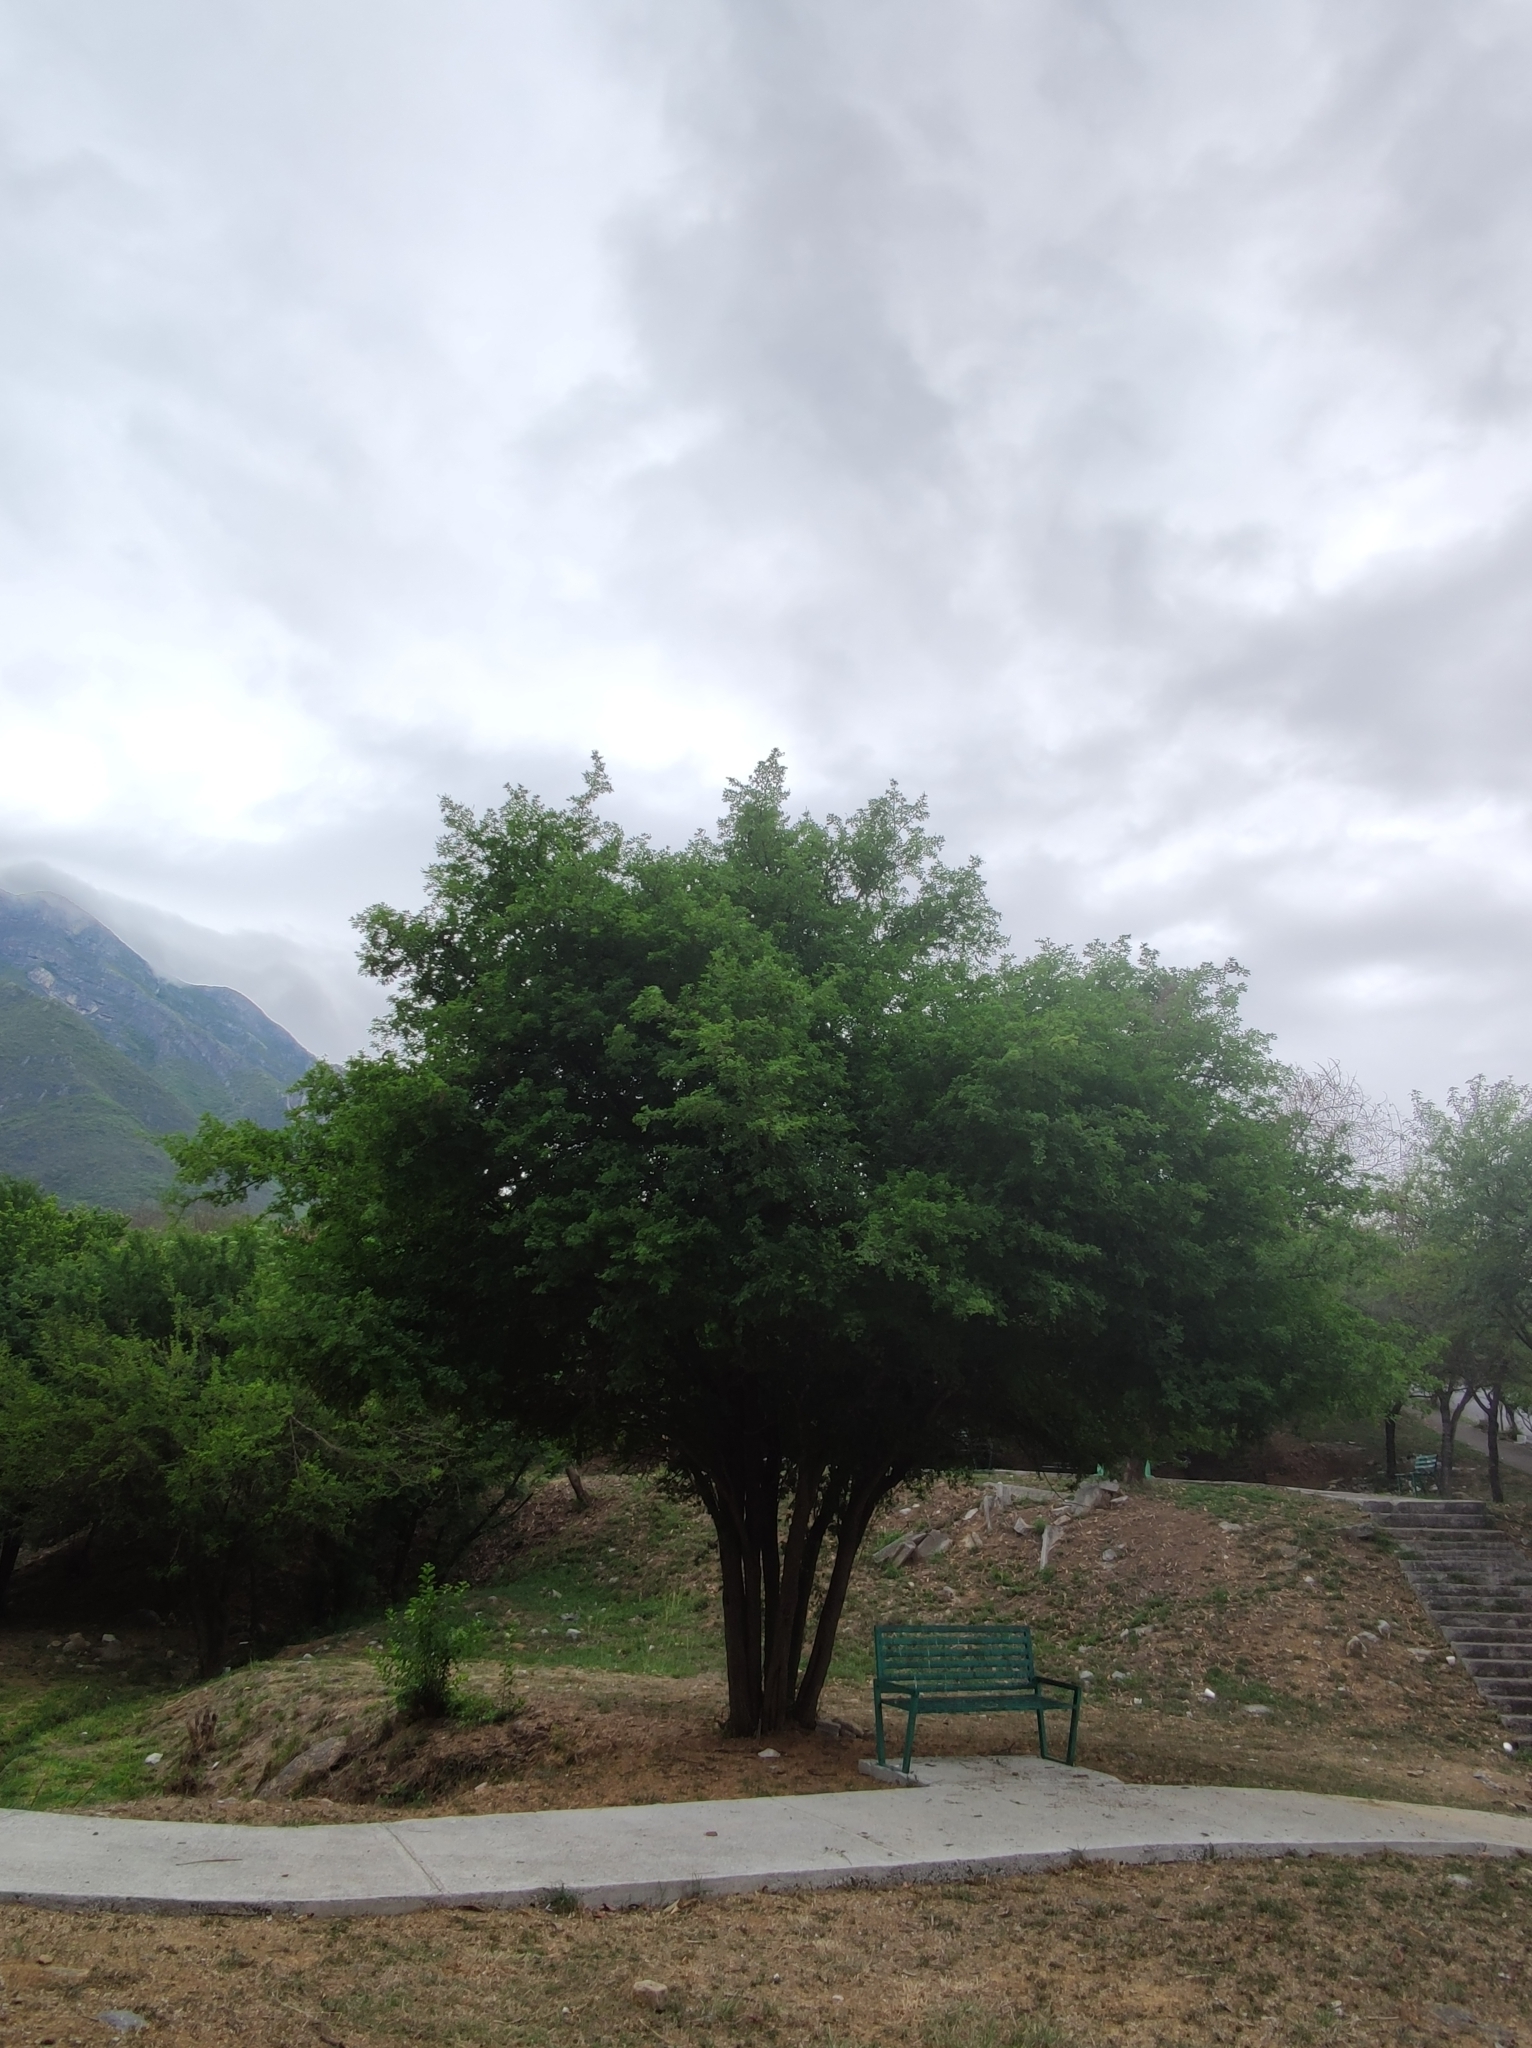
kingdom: Plantae
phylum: Tracheophyta
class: Magnoliopsida
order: Fabales
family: Fabaceae
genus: Ebenopsis
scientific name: Ebenopsis ebano
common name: Ebony blackbead
